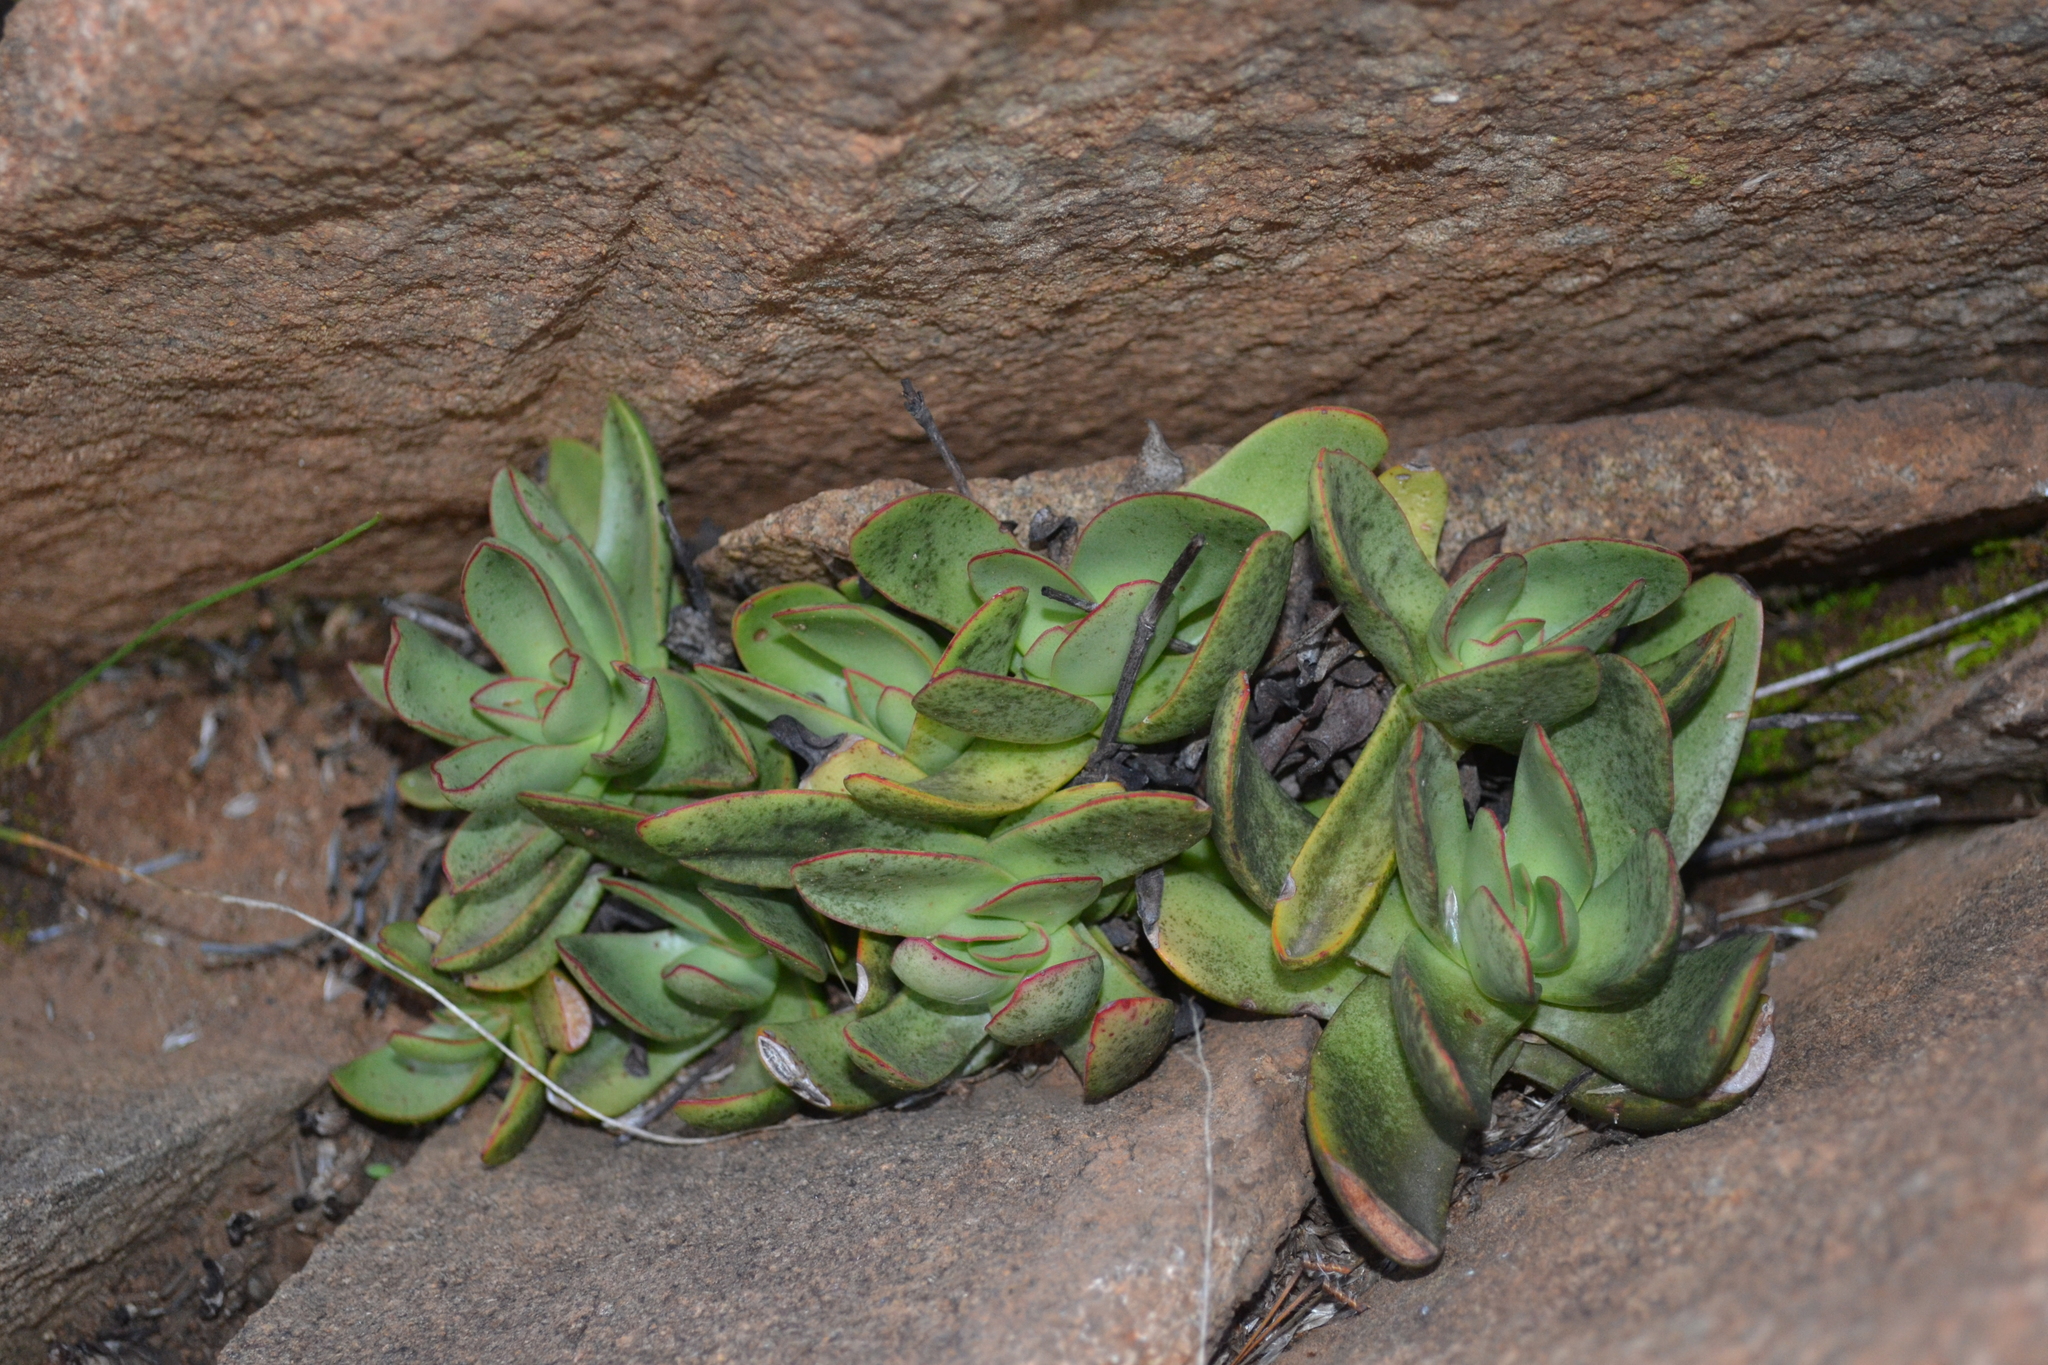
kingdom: Plantae
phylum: Tracheophyta
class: Magnoliopsida
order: Saxifragales
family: Crassulaceae
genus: Crassula
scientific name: Crassula nudicaulis
